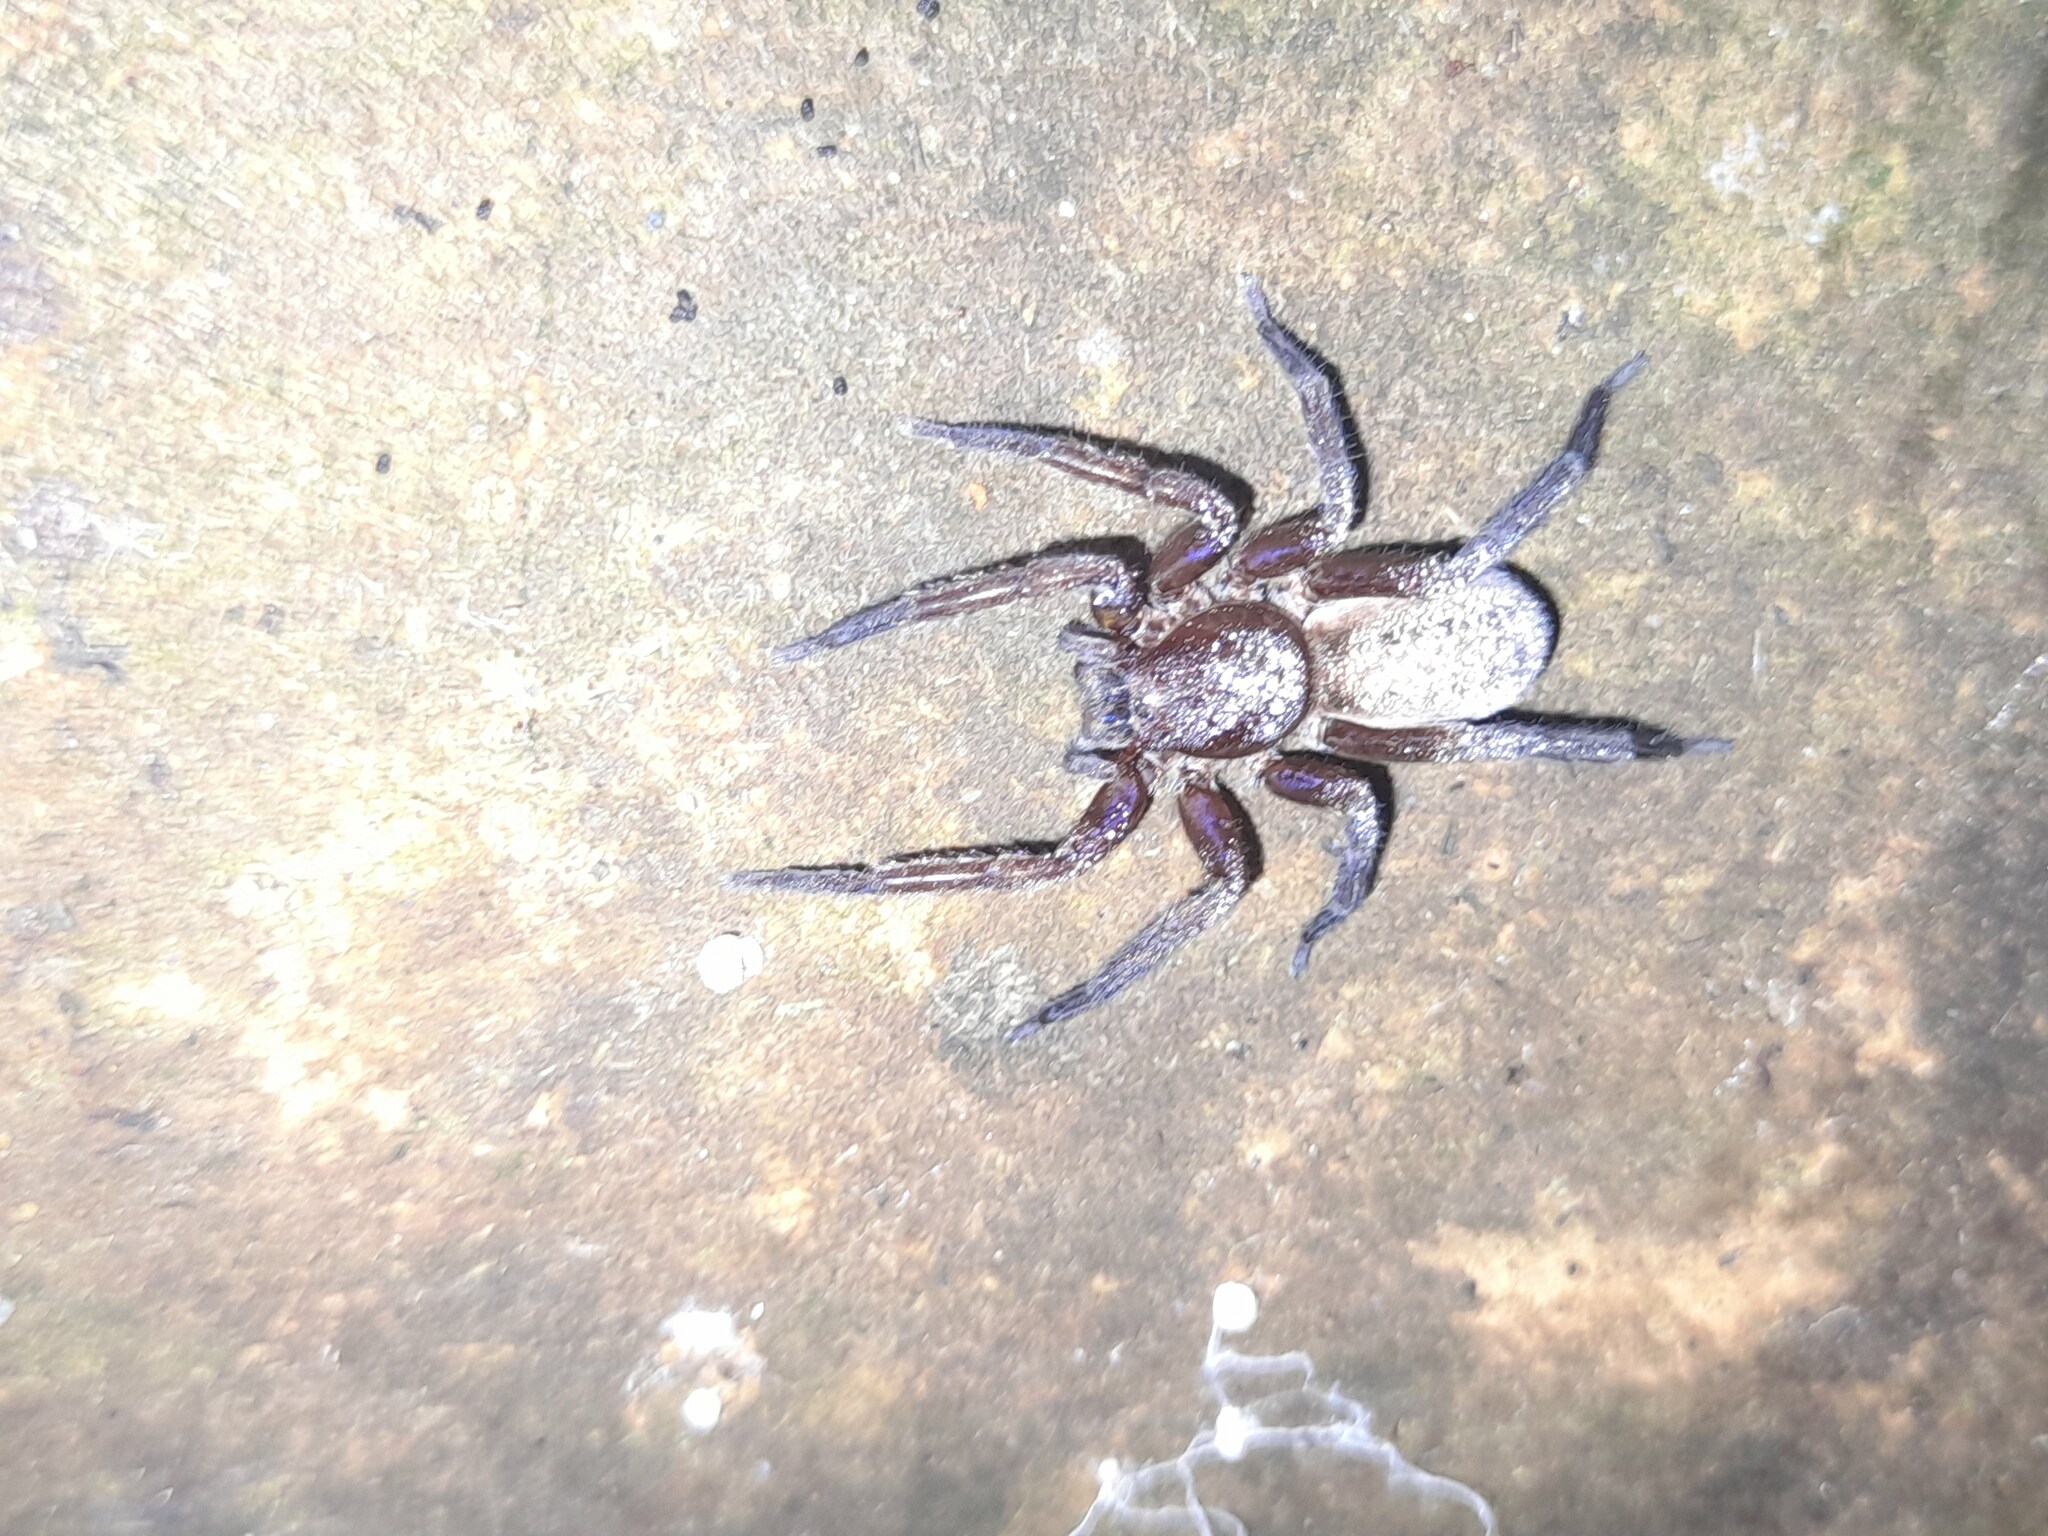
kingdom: Animalia
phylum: Arthropoda
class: Arachnida
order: Araneae
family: Ctenidae
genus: Asthenoctenus
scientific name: Asthenoctenus borellii
